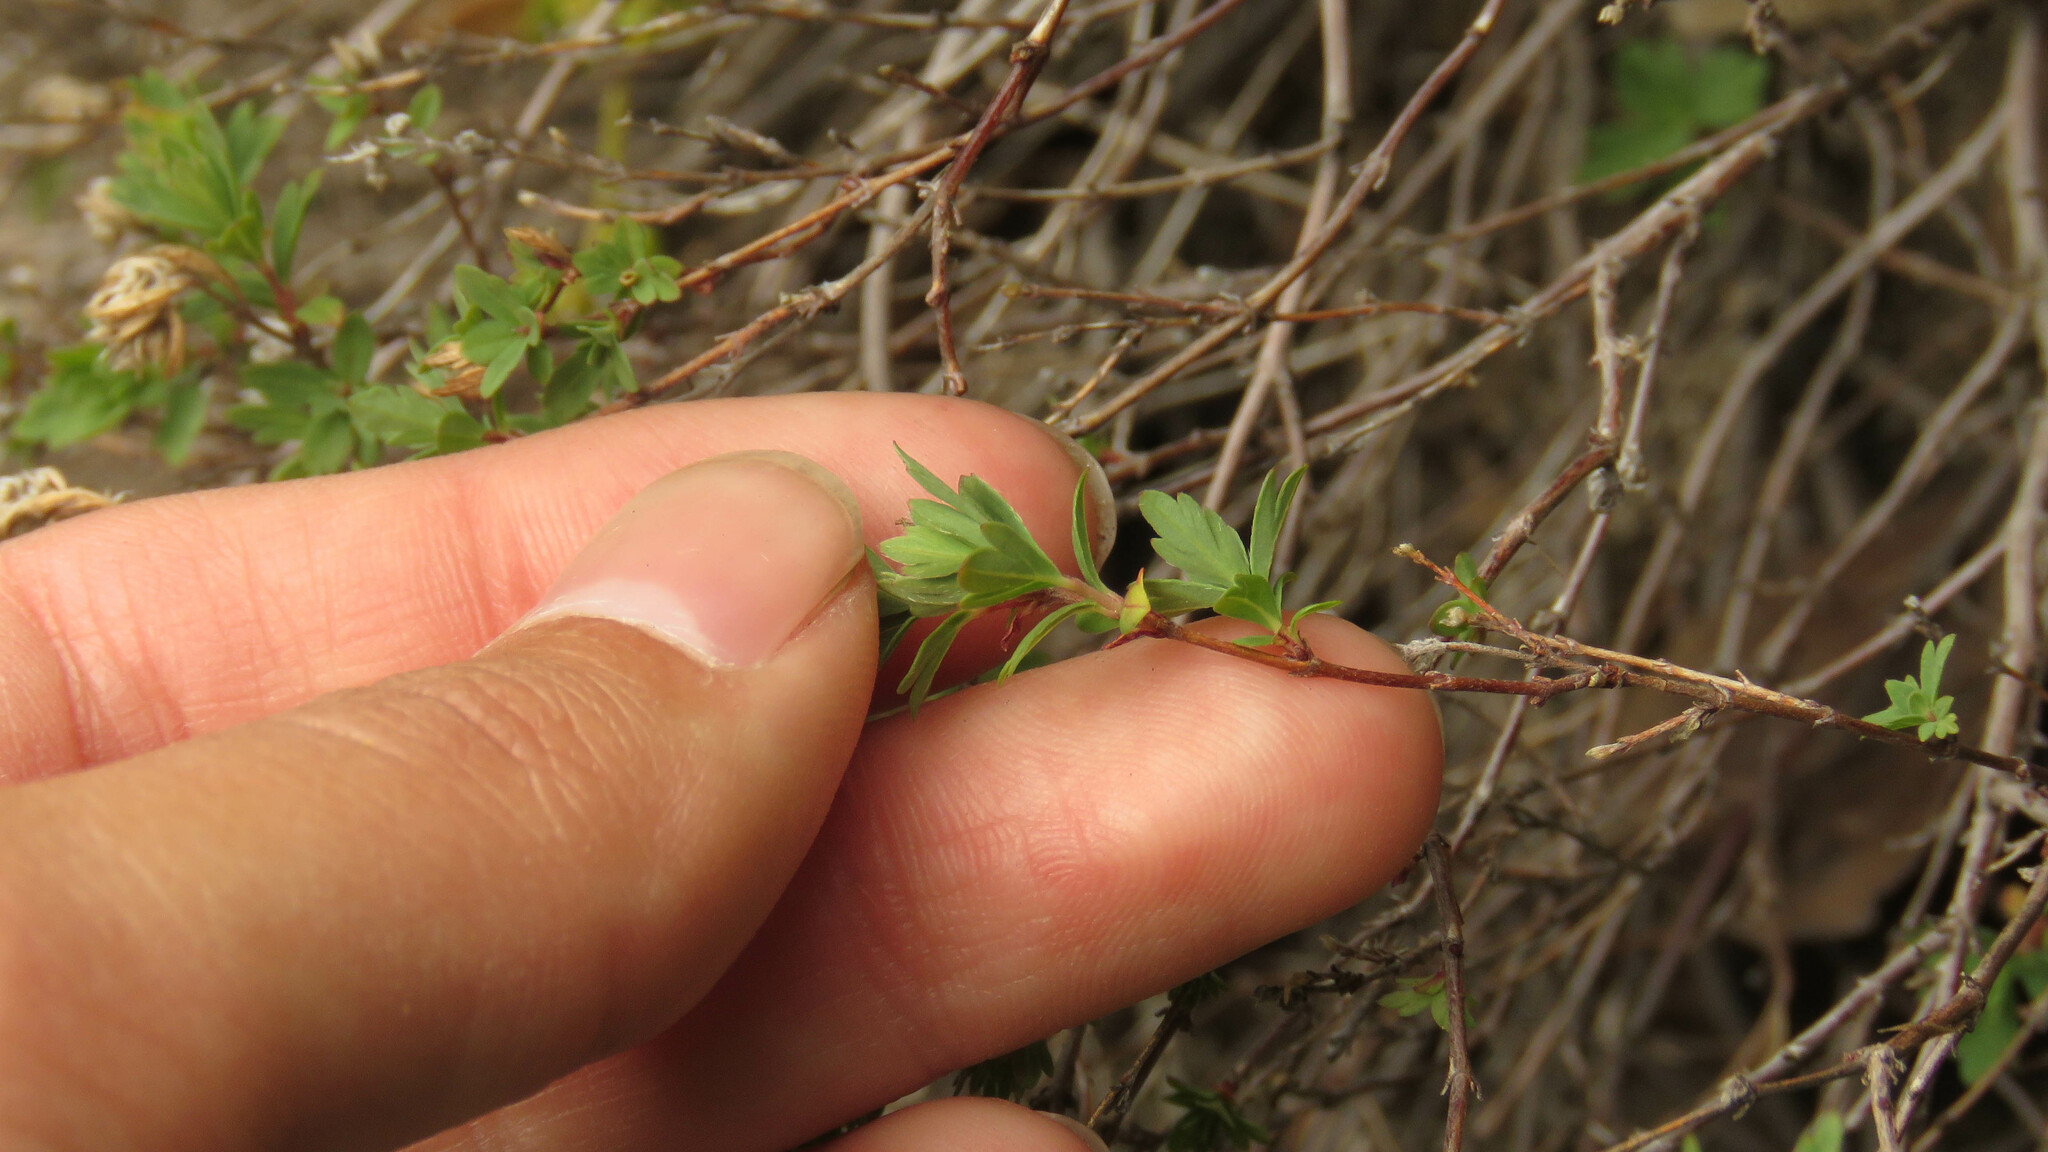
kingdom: Plantae
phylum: Tracheophyta
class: Magnoliopsida
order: Geraniales
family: Vivianiaceae
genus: Wendtia
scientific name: Wendtia gracilis
